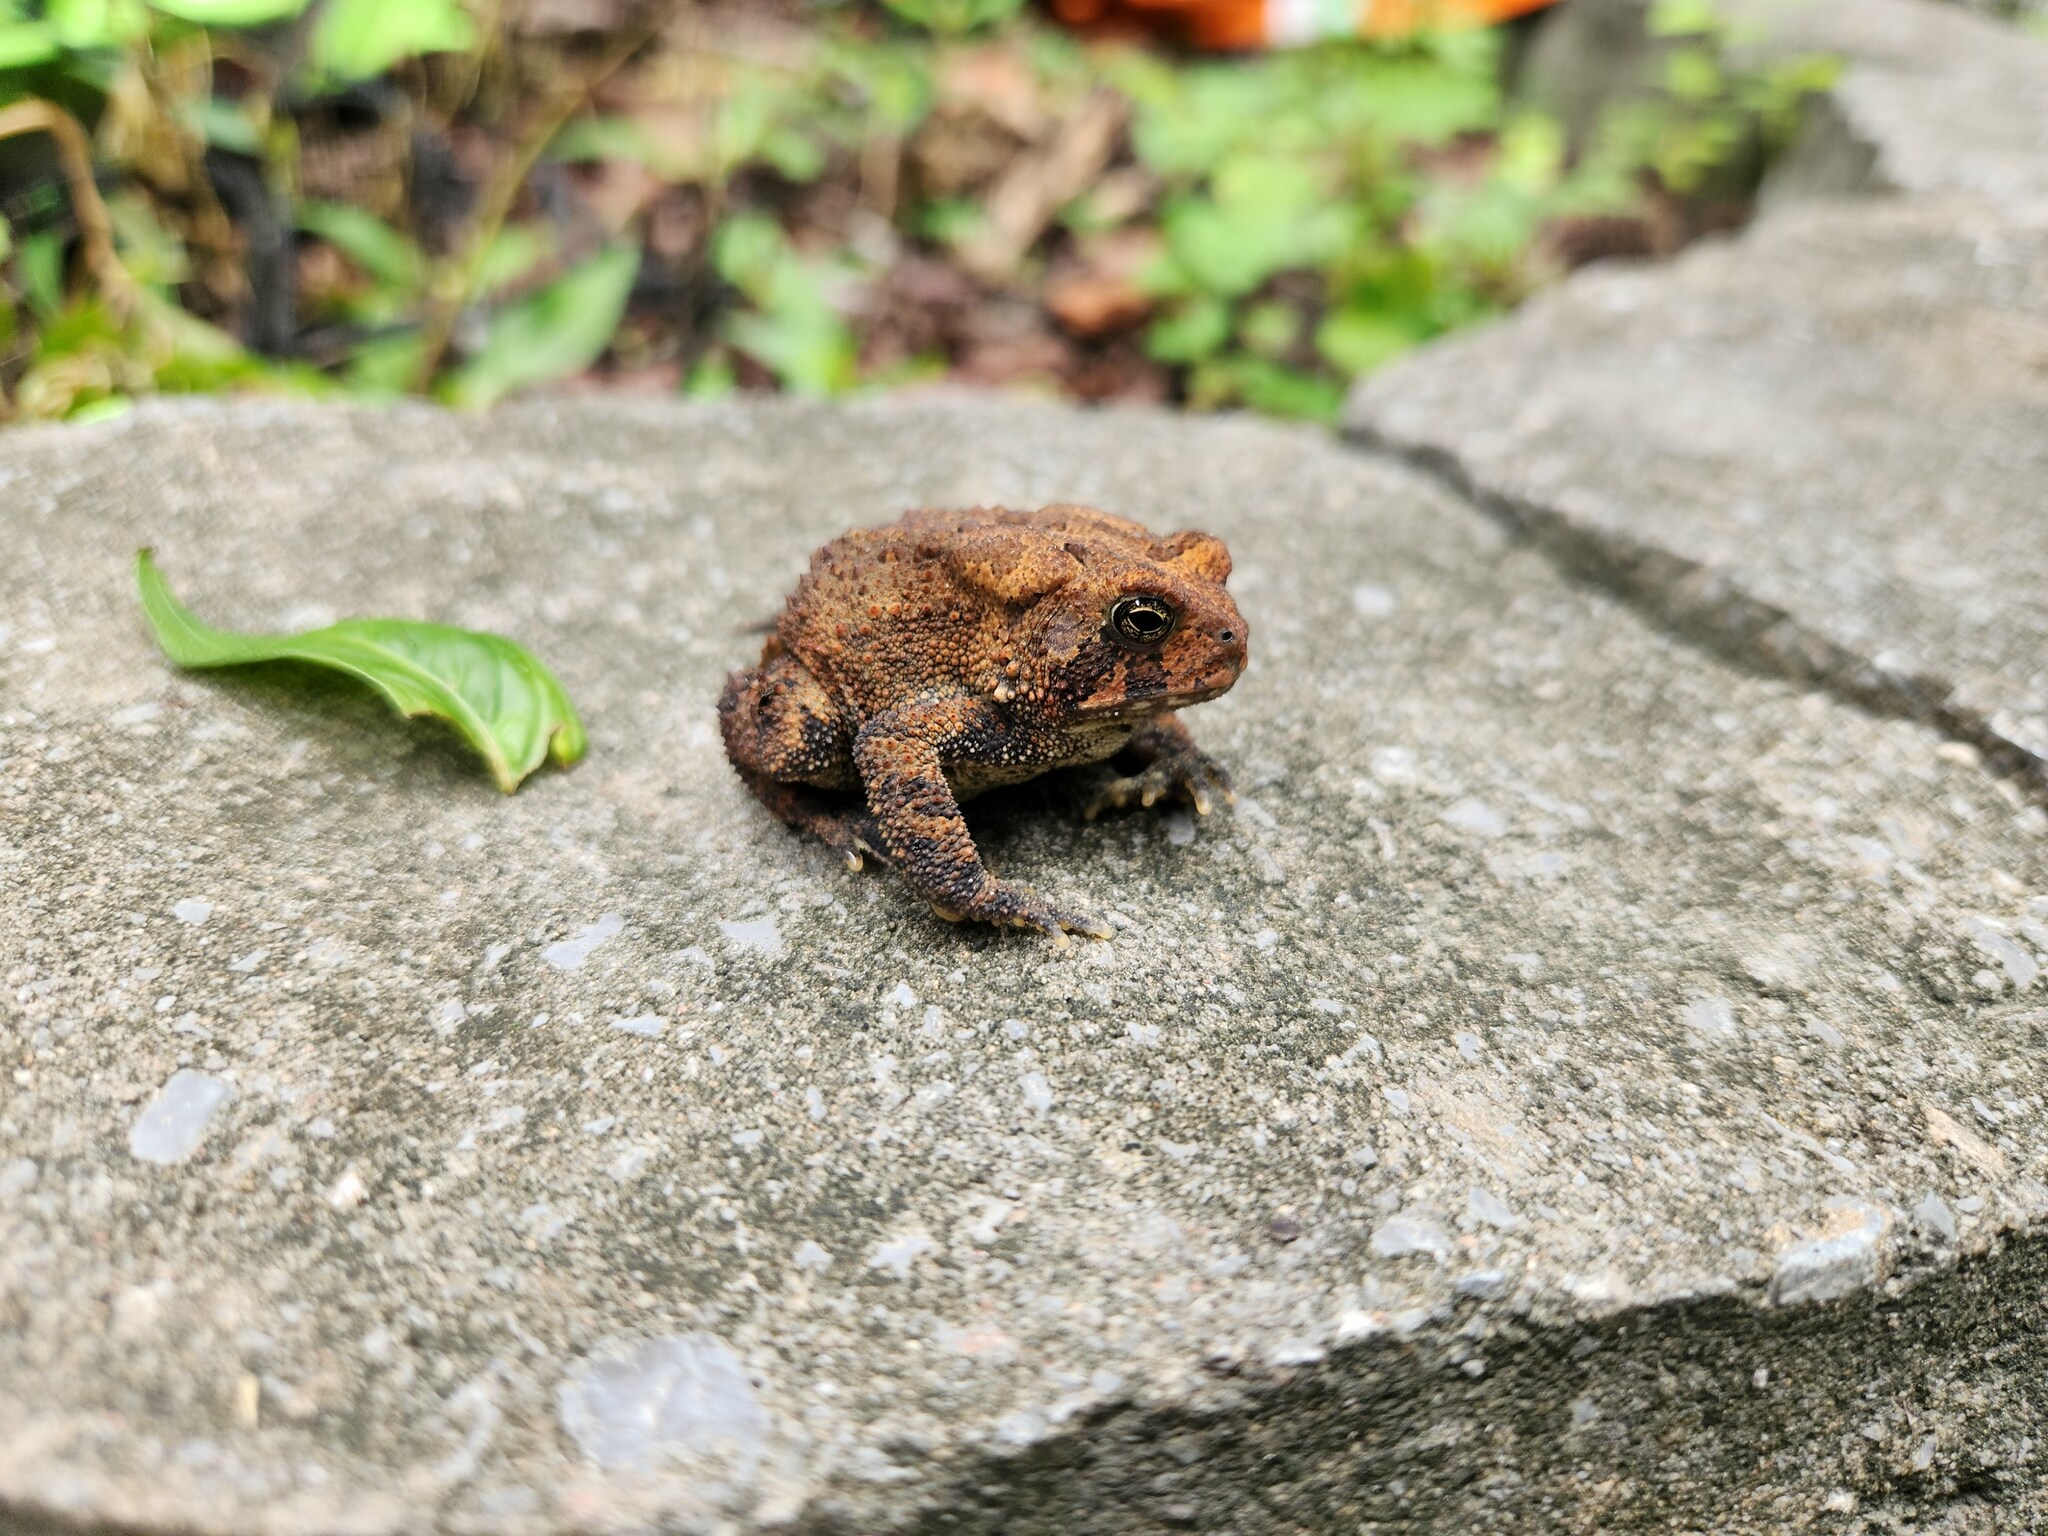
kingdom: Animalia
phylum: Chordata
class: Amphibia
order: Anura
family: Bufonidae
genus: Anaxyrus
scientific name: Anaxyrus americanus
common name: American toad
